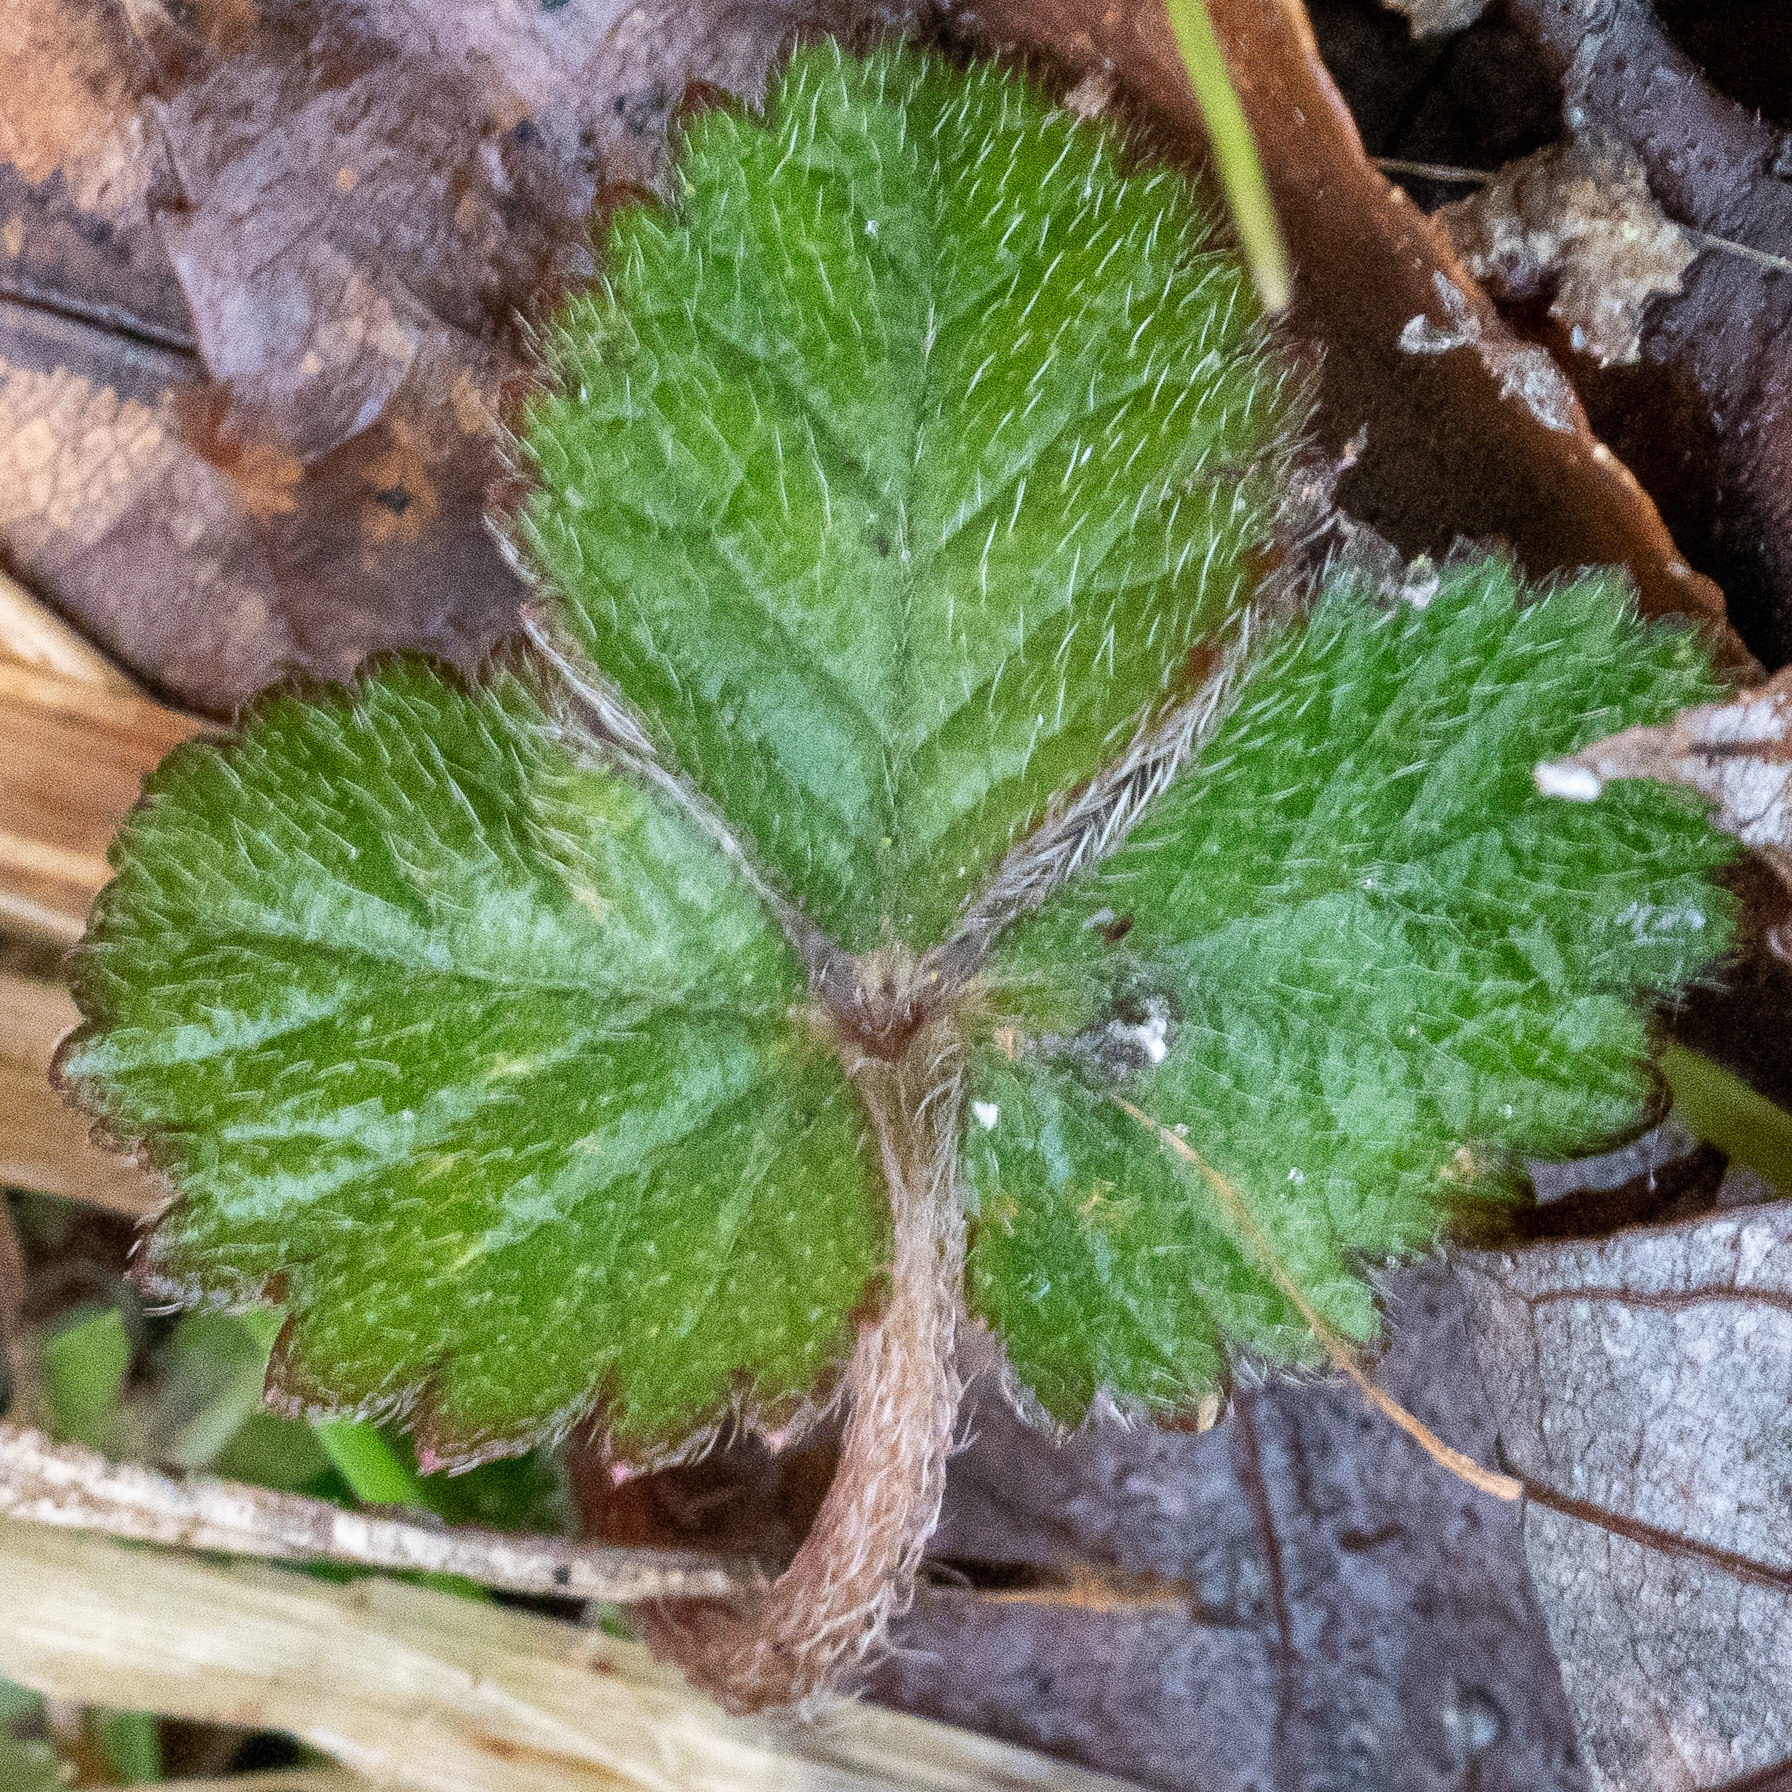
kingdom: Plantae
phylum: Tracheophyta
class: Magnoliopsida
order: Rosales
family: Rosaceae
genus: Potentilla
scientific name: Potentilla indica
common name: Yellow-flowered strawberry
